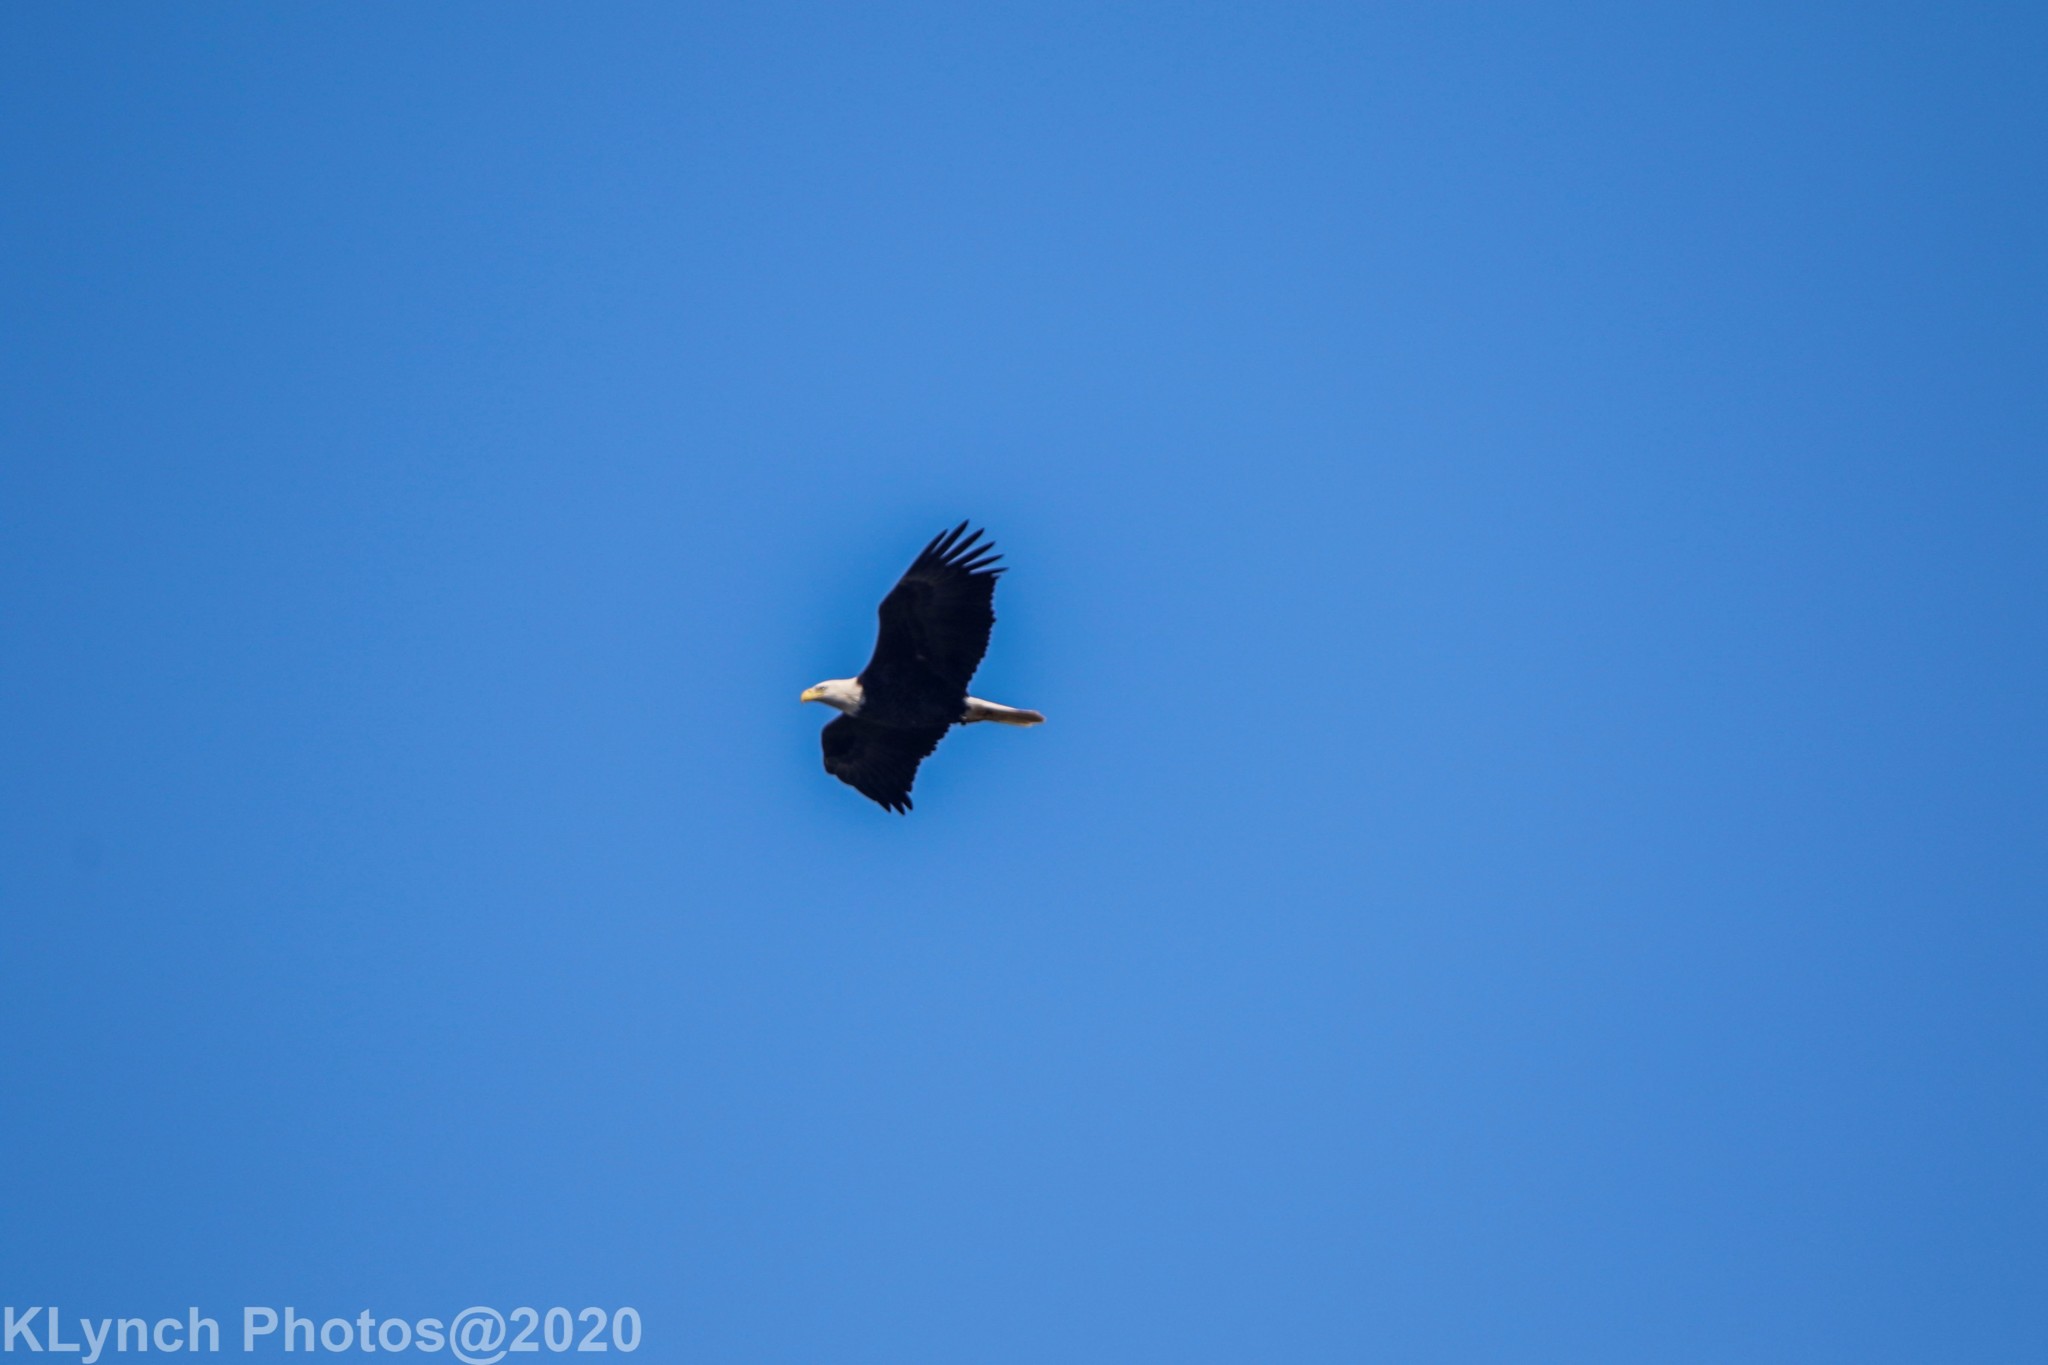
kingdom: Animalia
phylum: Chordata
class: Aves
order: Accipitriformes
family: Accipitridae
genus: Haliaeetus
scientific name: Haliaeetus leucocephalus
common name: Bald eagle
